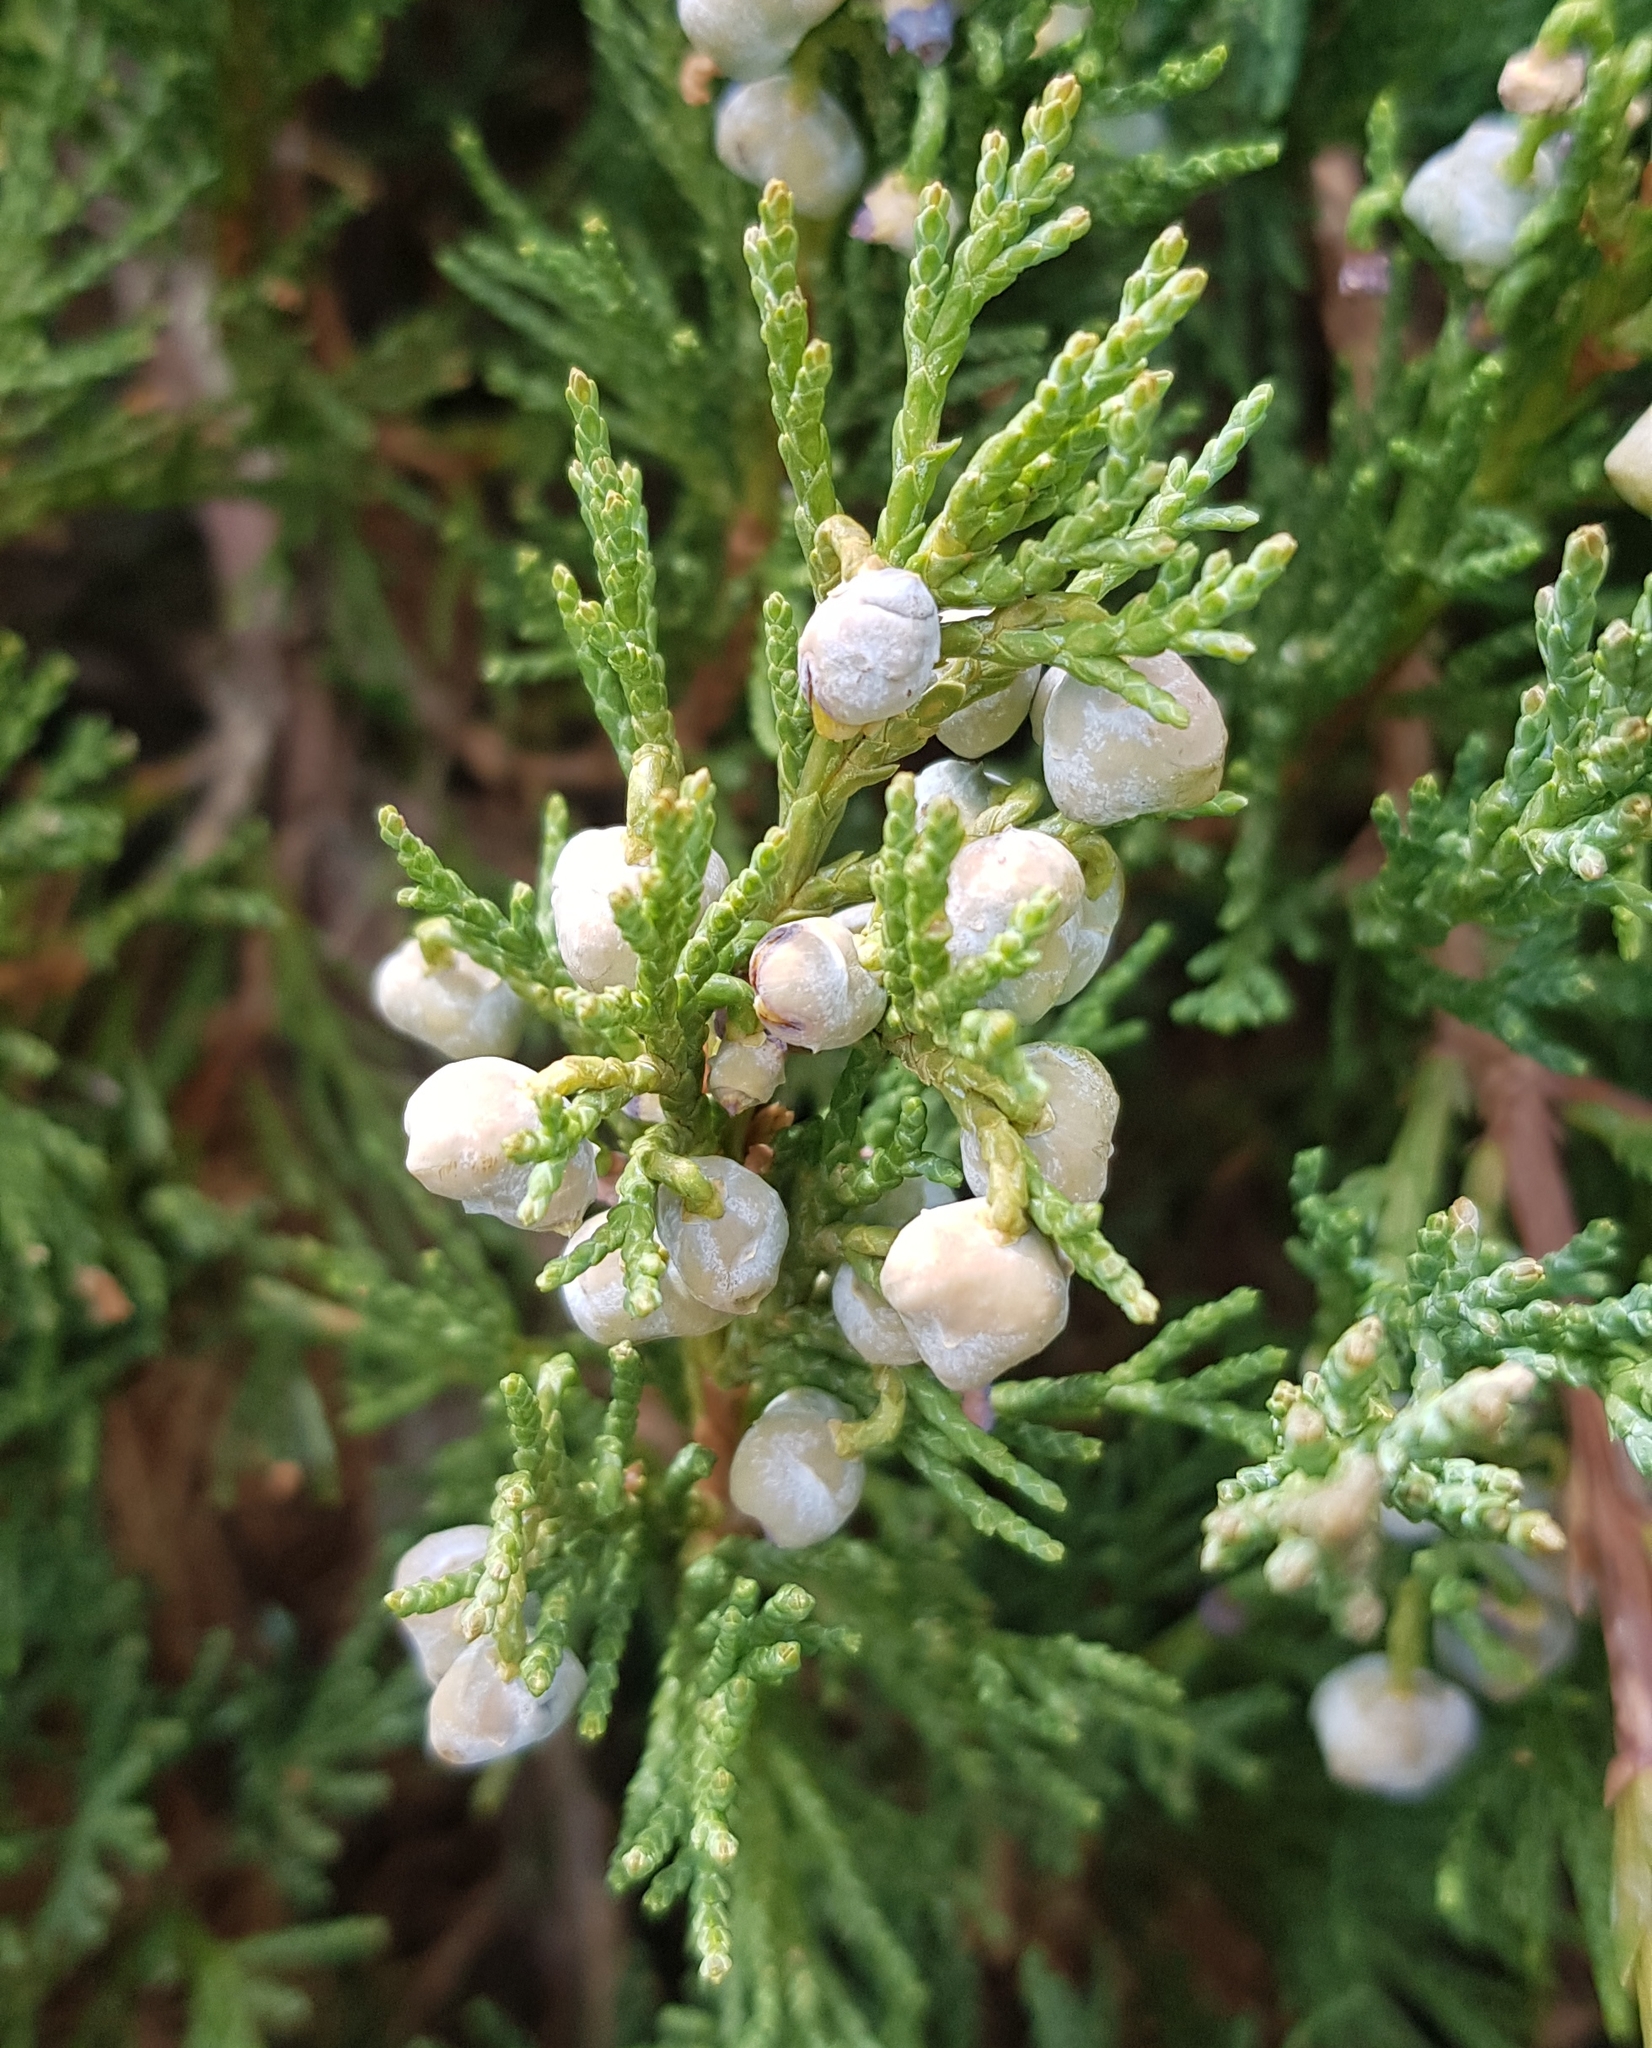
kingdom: Plantae
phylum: Tracheophyta
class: Pinopsida
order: Pinales
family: Cupressaceae
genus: Juniperus
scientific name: Juniperus sabina
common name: Savin
